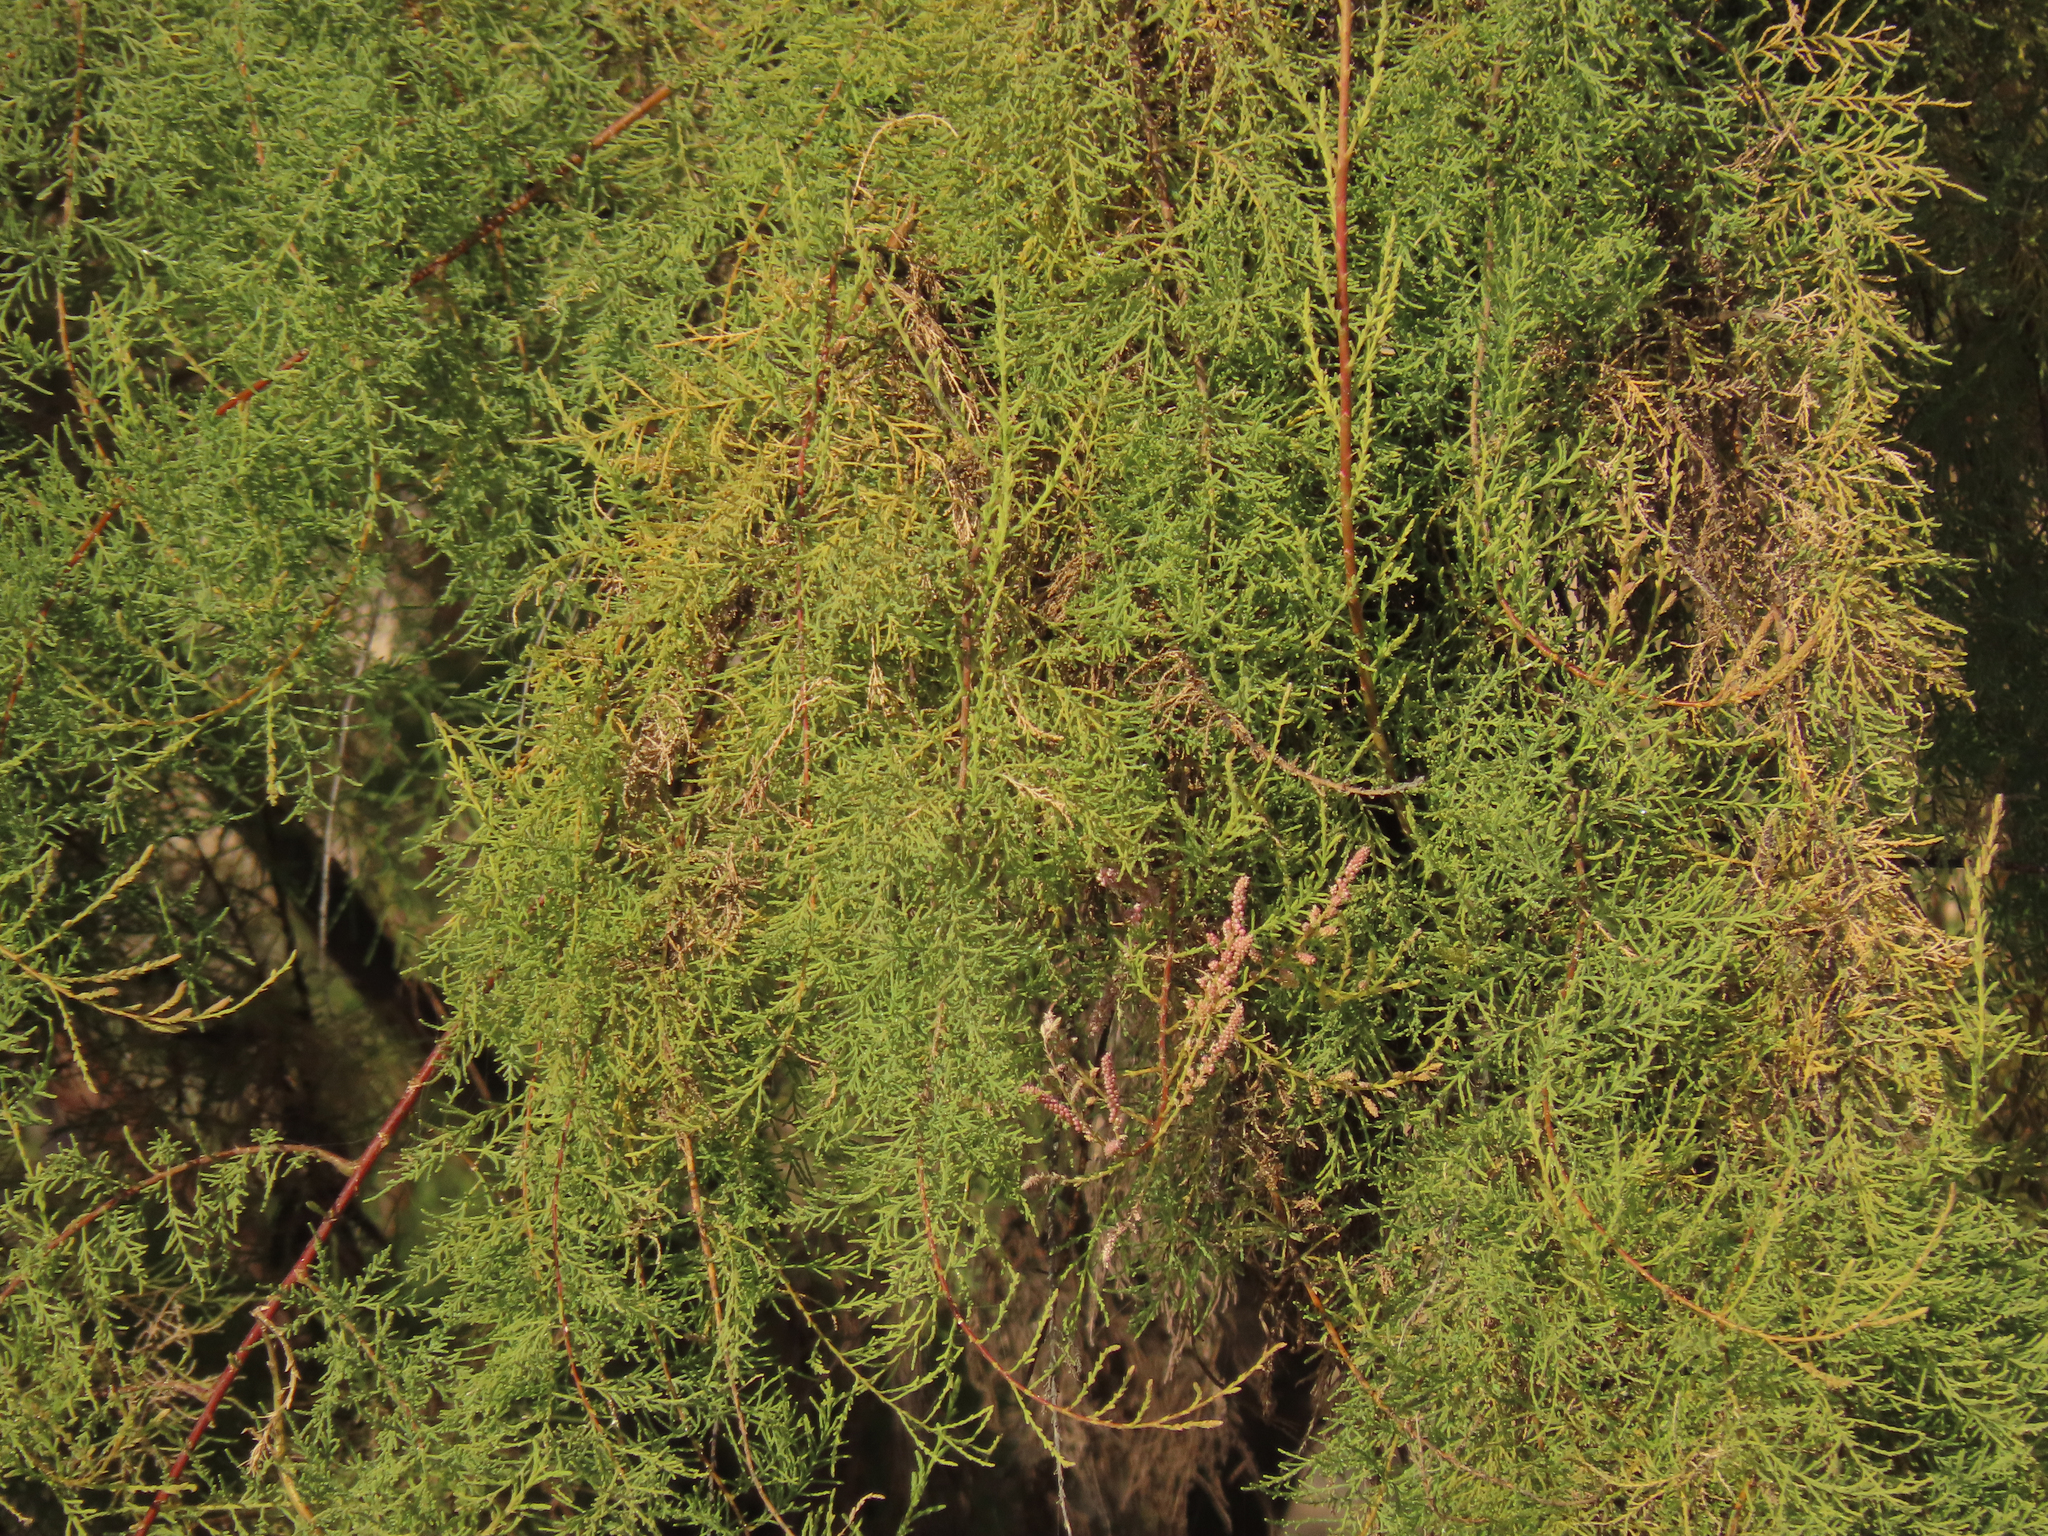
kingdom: Plantae
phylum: Tracheophyta
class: Magnoliopsida
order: Caryophyllales
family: Tamaricaceae
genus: Tamarix
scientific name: Tamarix ramosissima
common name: Pink tamarisk
